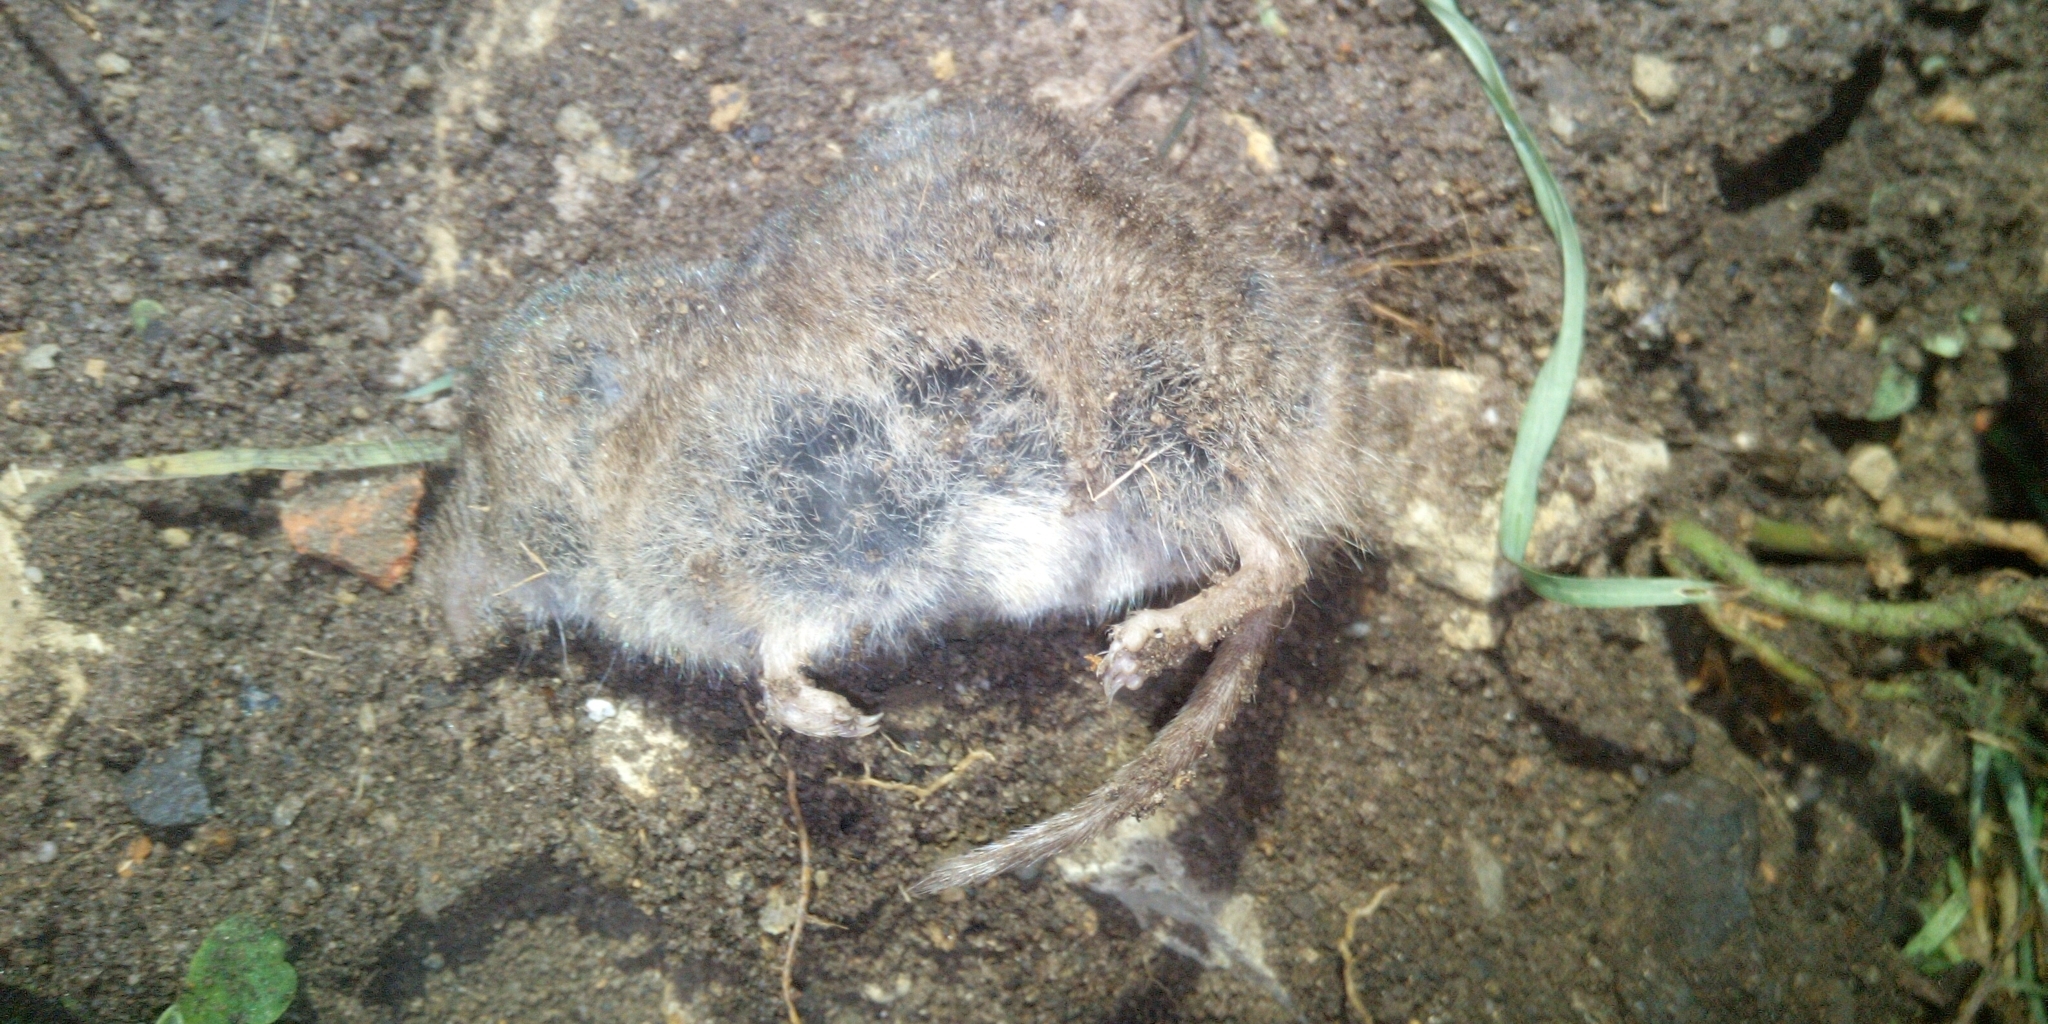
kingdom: Animalia
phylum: Chordata
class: Mammalia
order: Soricomorpha
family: Soricidae
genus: Myosorex
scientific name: Myosorex varius
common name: Forest shrew
